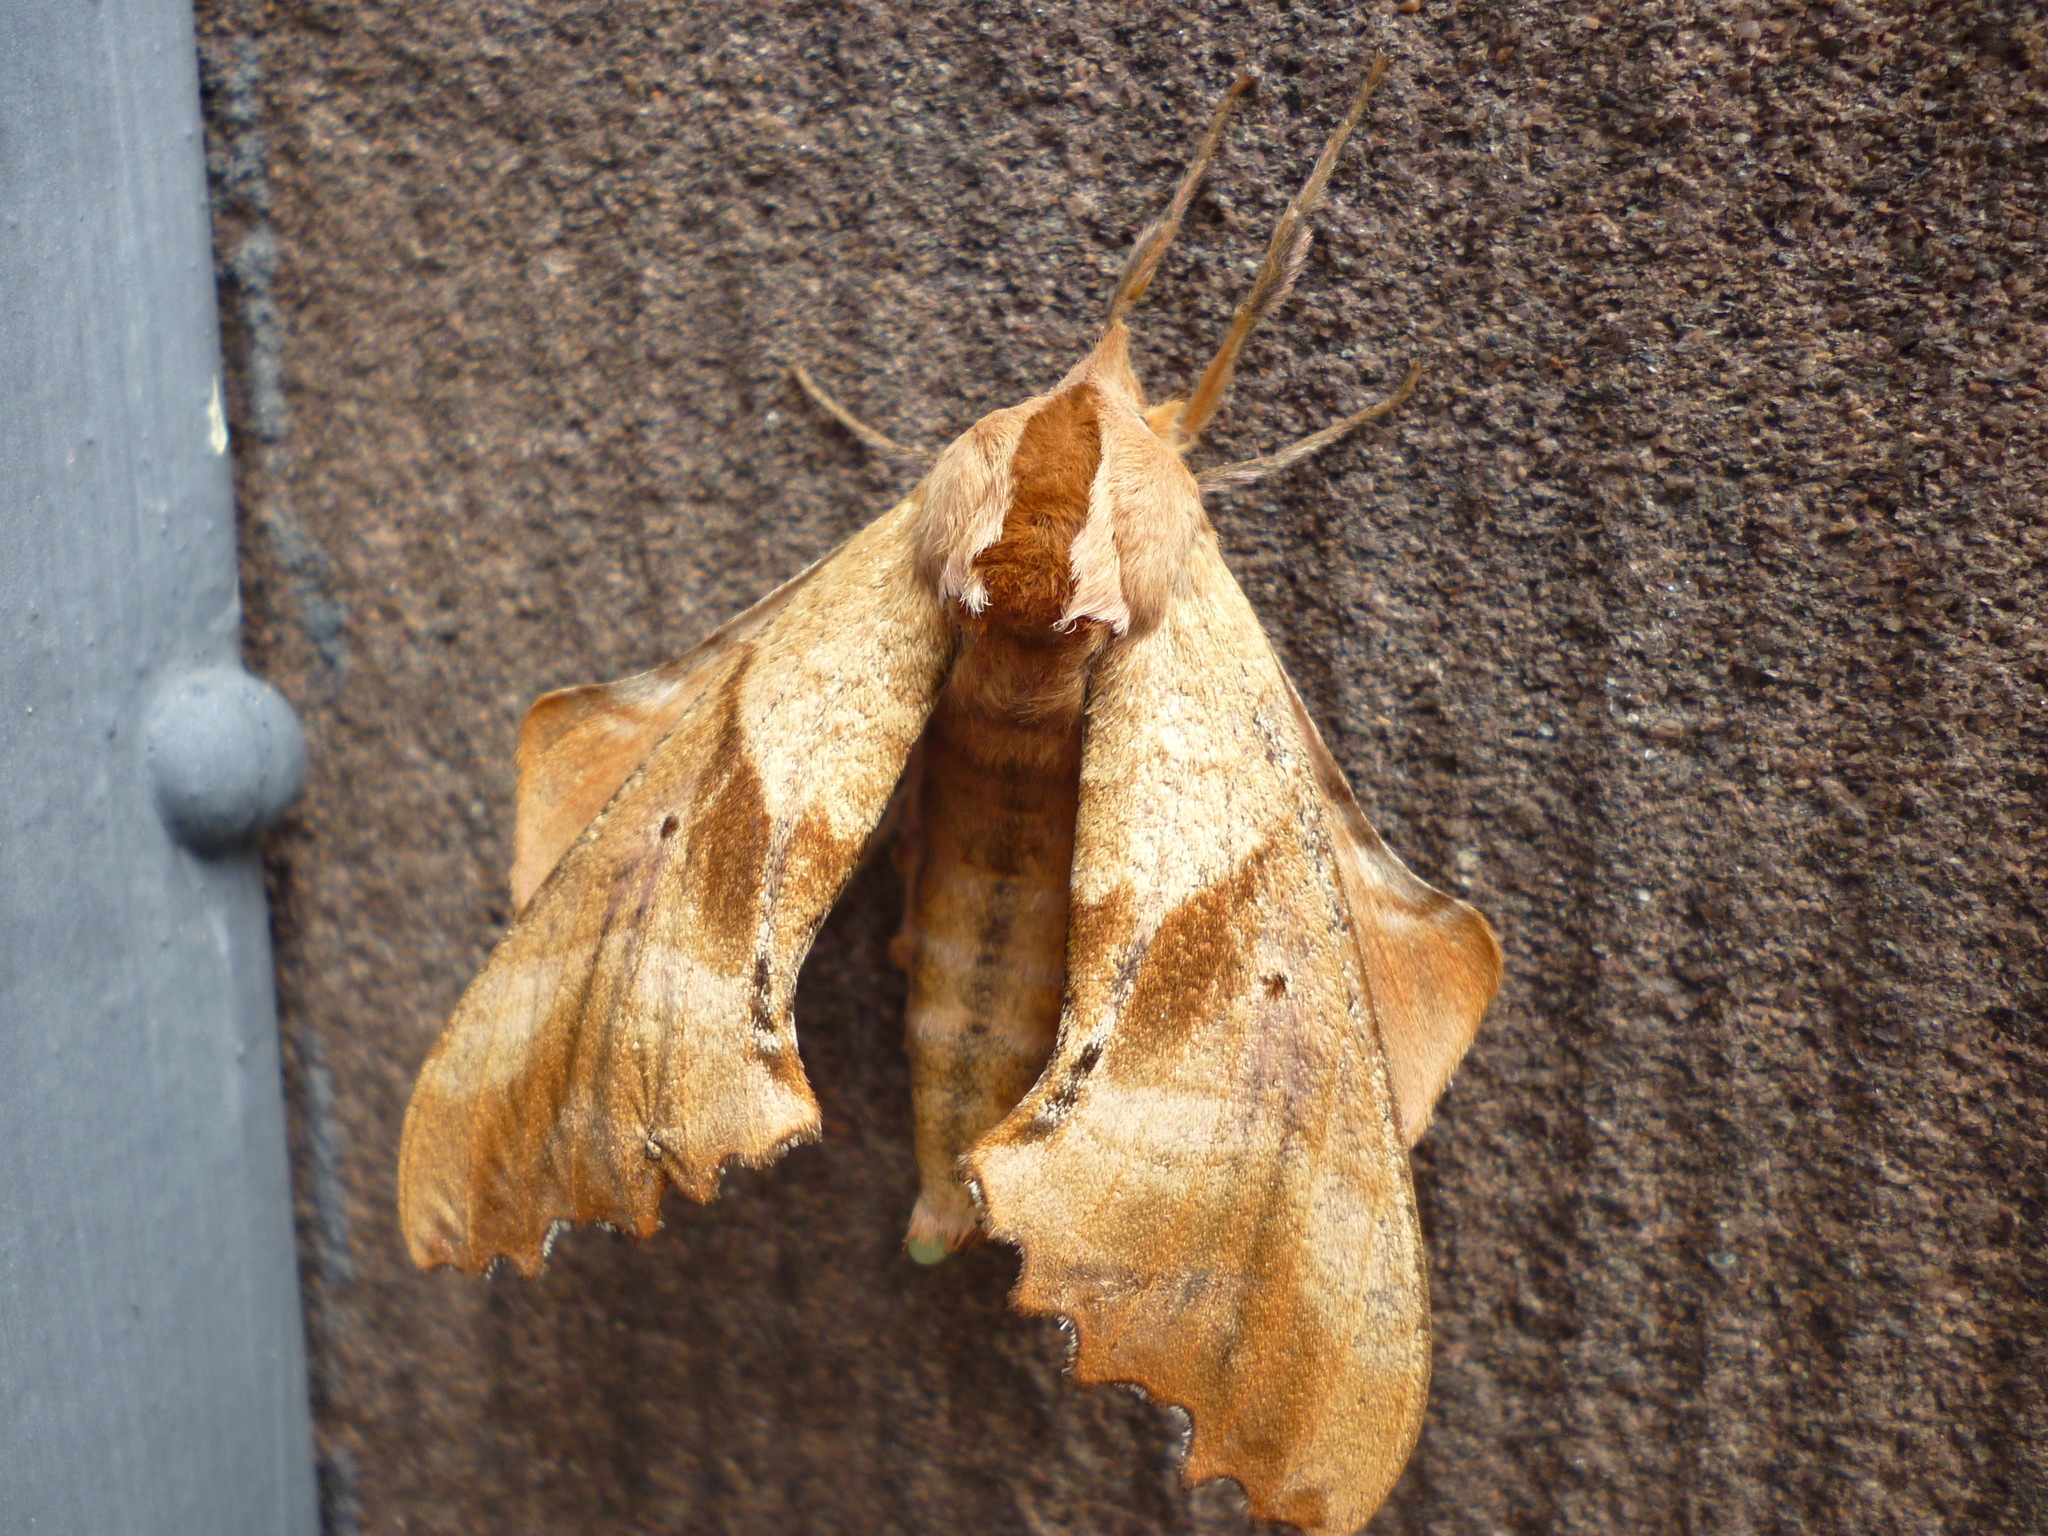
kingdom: Animalia
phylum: Arthropoda
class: Insecta
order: Lepidoptera
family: Sphingidae
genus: Paonias
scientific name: Paonias excaecata
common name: Blind-eyed sphinx
